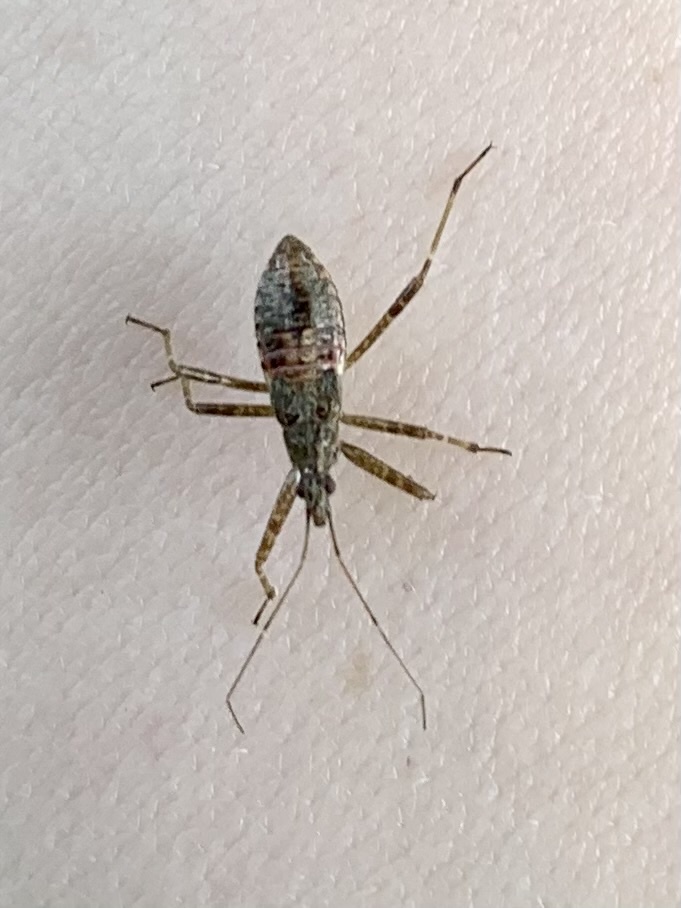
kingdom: Animalia
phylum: Arthropoda
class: Insecta
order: Hemiptera
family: Nabidae
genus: Himacerus
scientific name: Himacerus apterus
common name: Tree damsel bug
